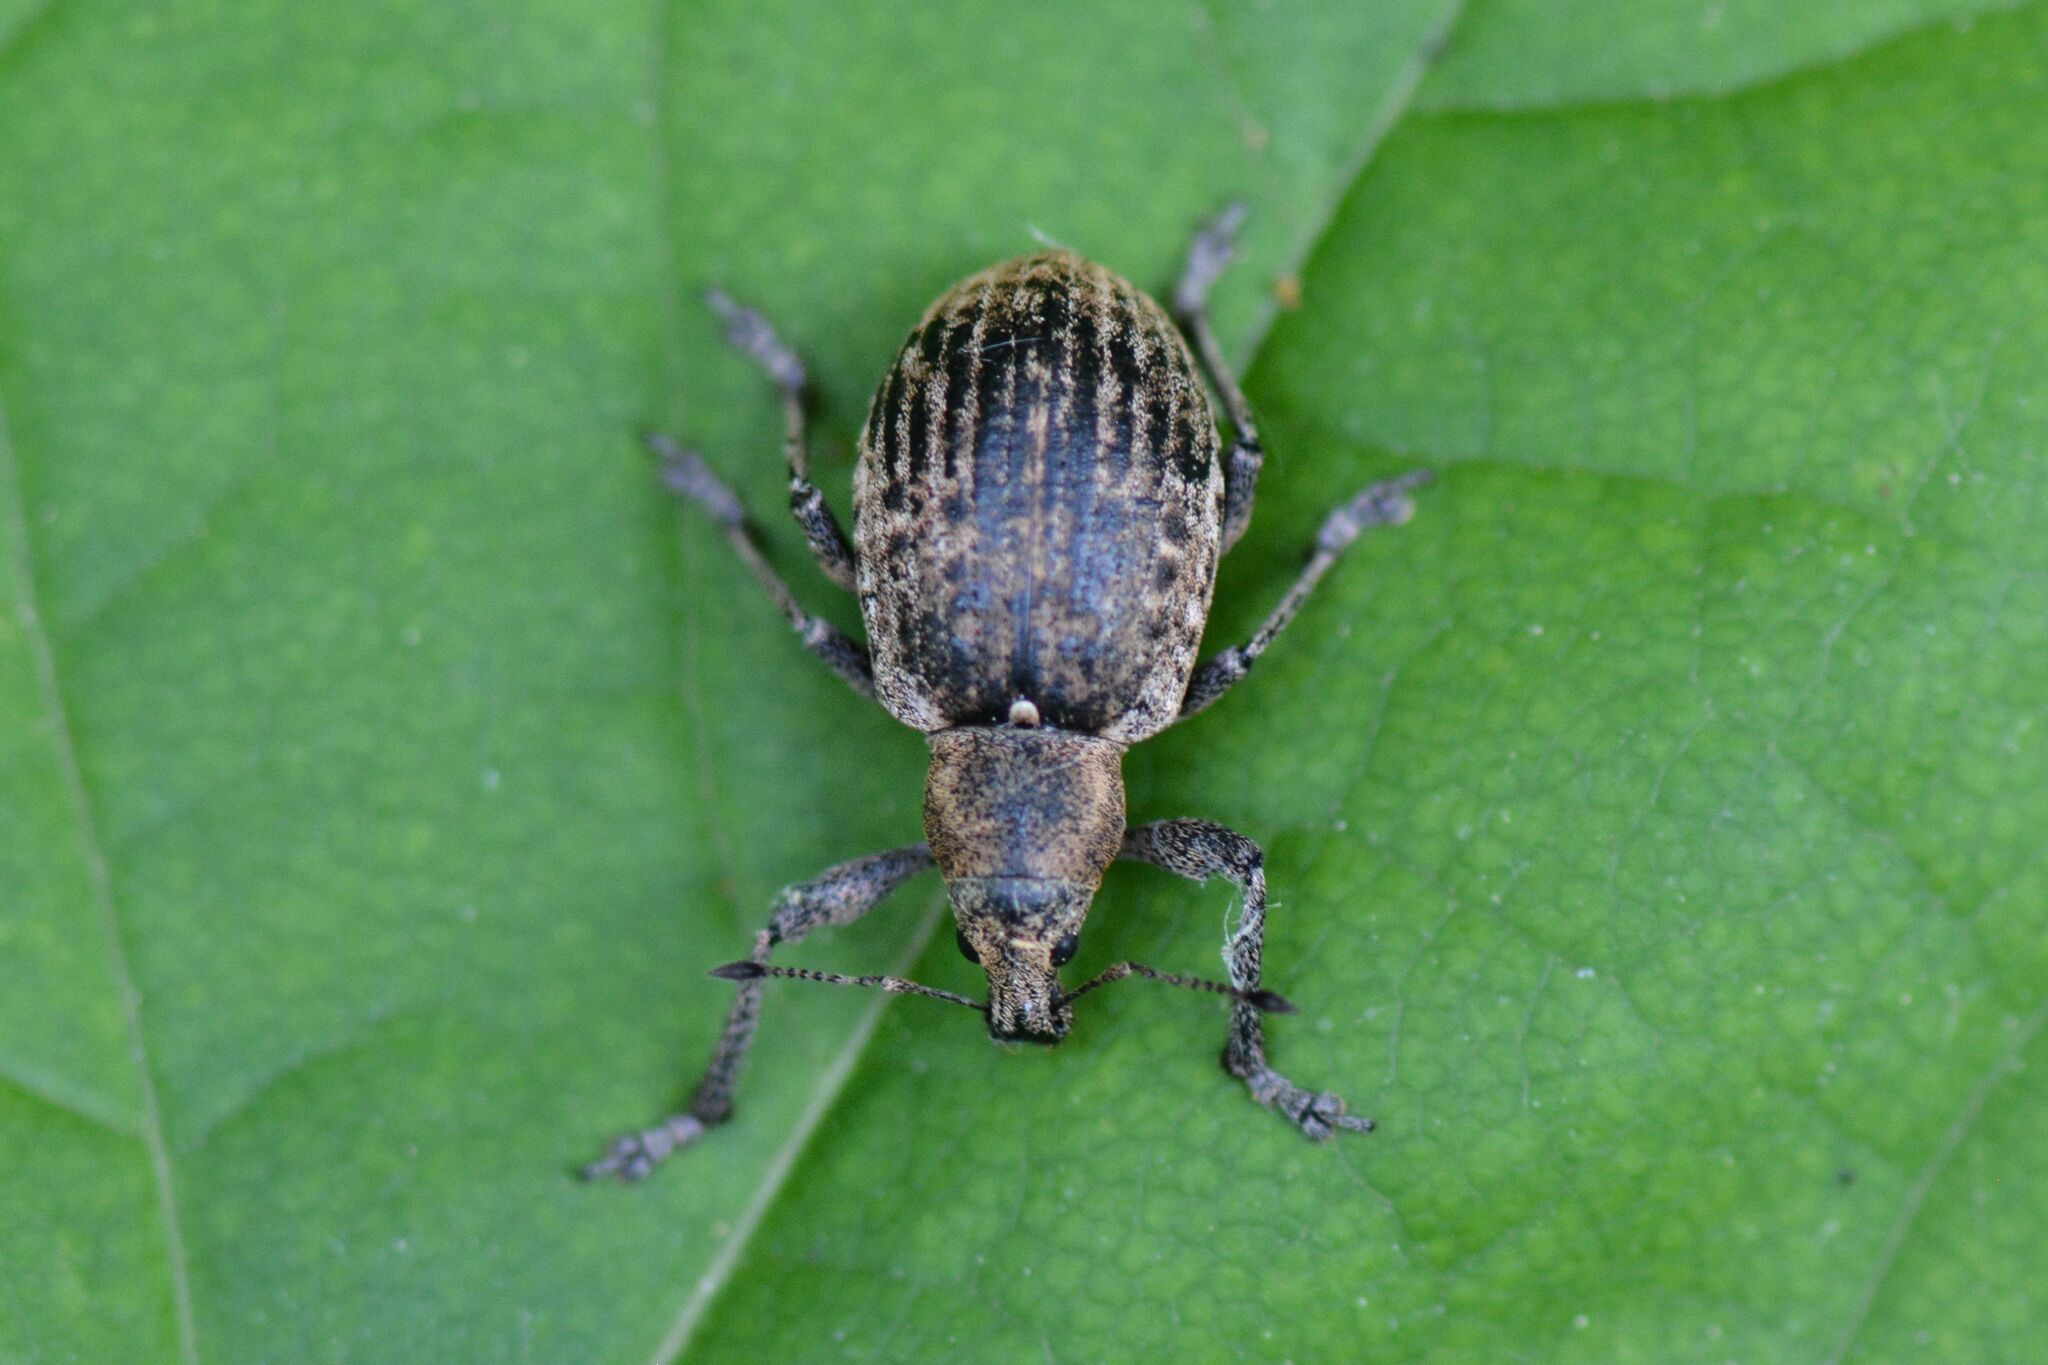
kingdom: Animalia
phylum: Arthropoda
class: Insecta
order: Coleoptera
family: Curculionidae
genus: Liophloeus
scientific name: Liophloeus tessulatus
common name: Weevil
